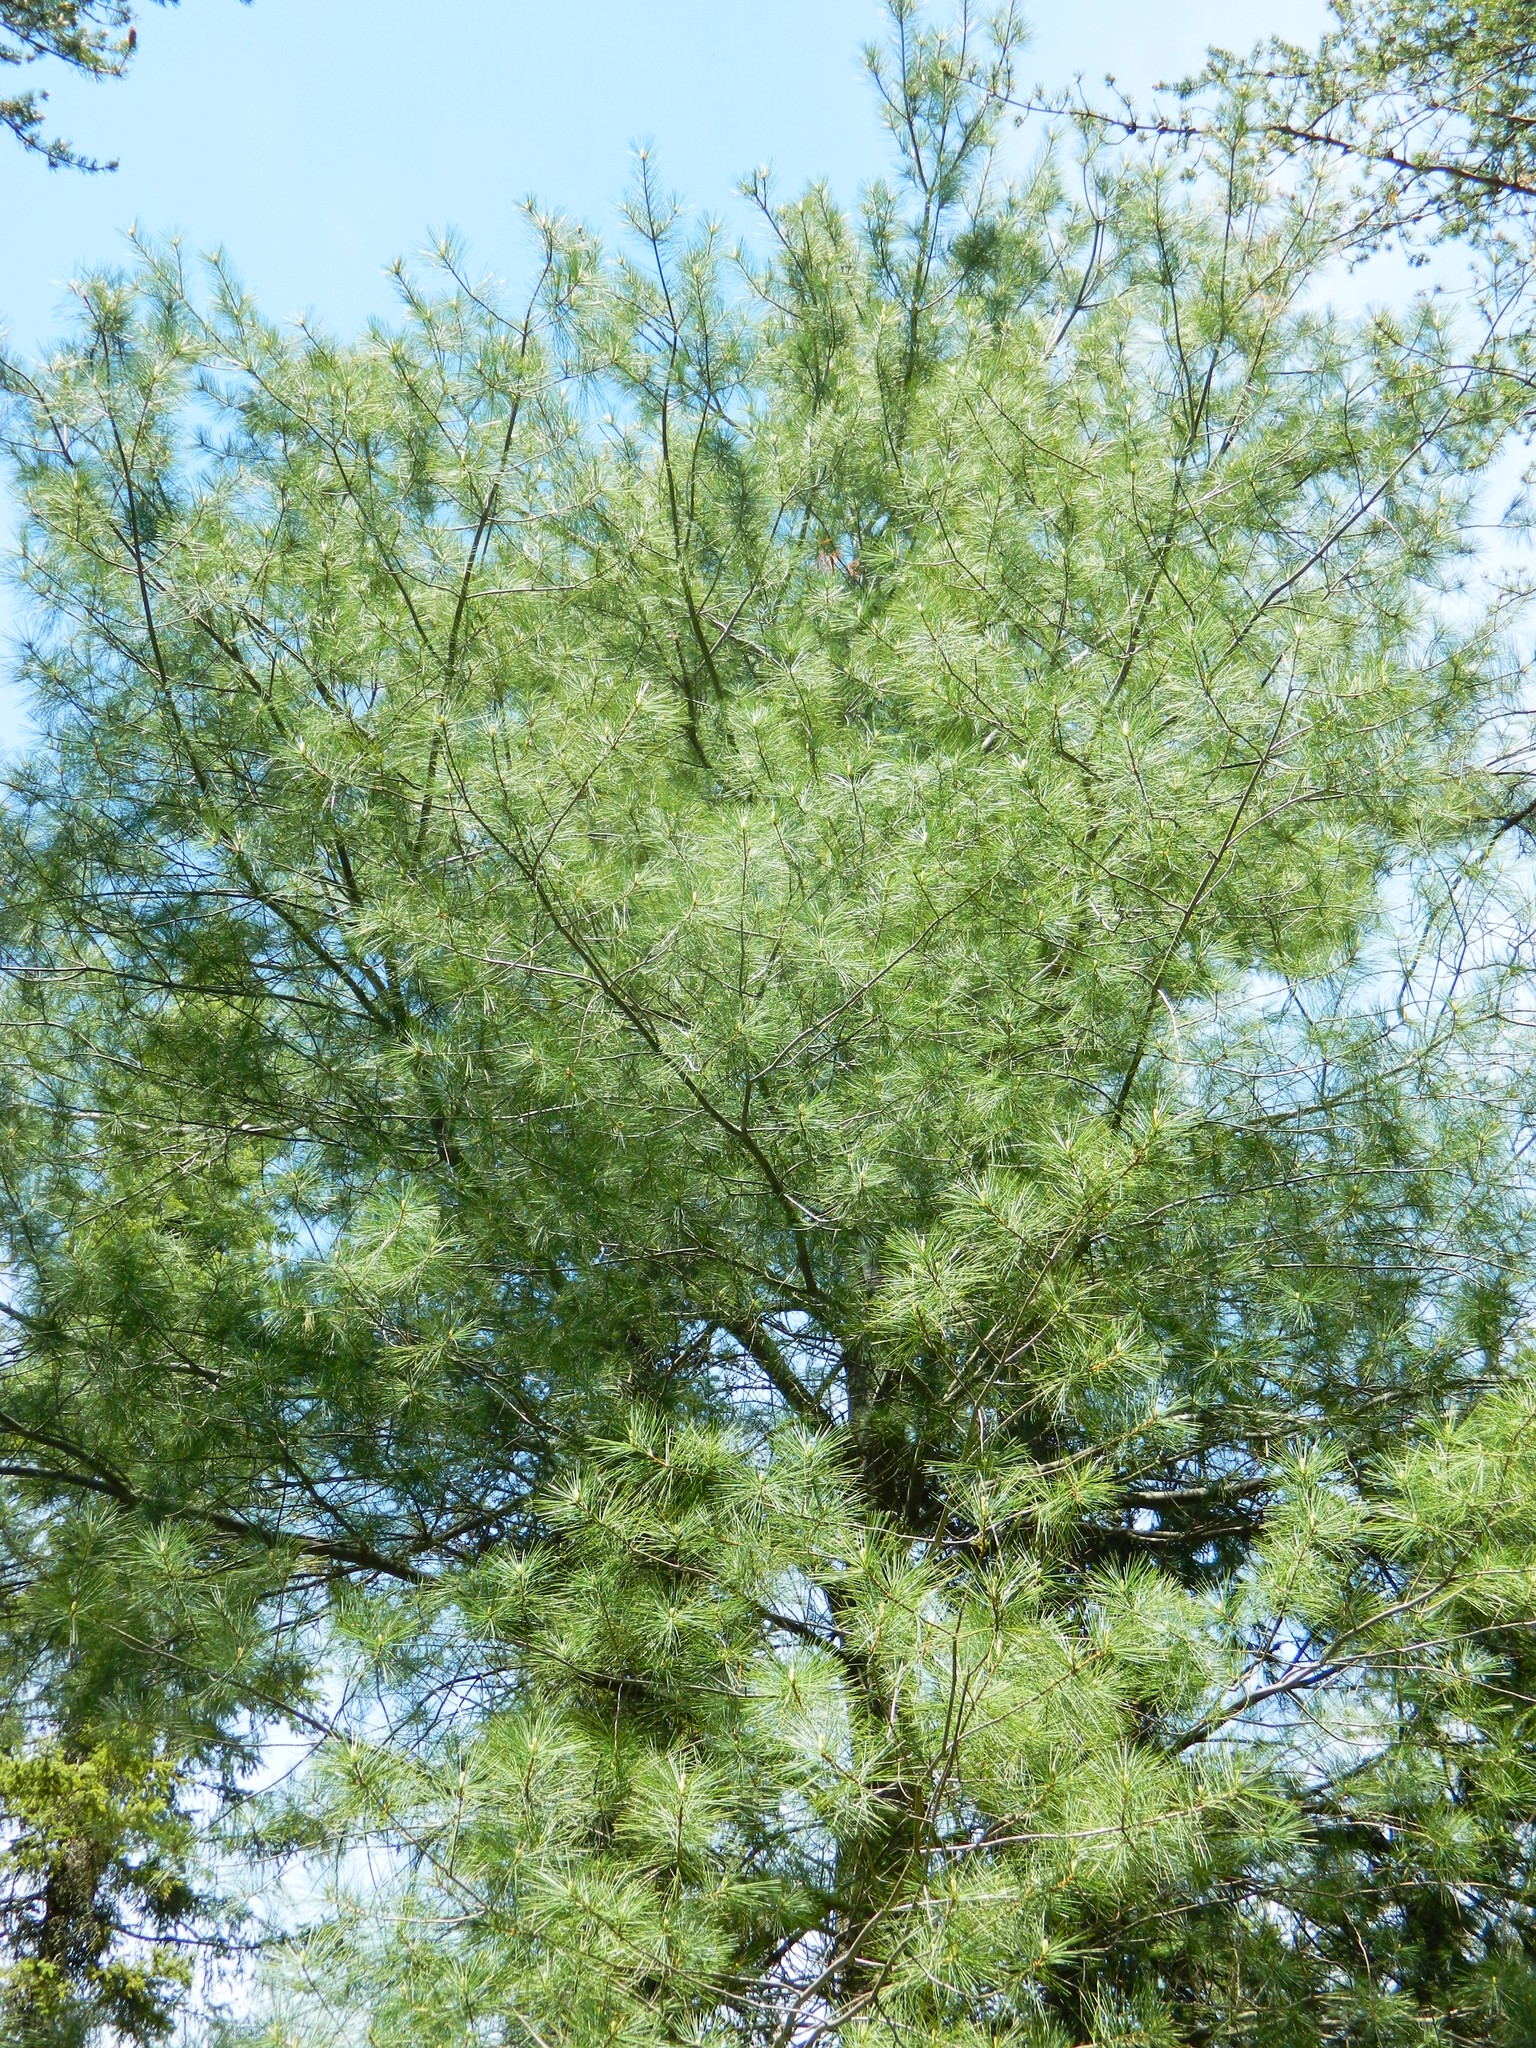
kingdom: Plantae
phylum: Tracheophyta
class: Pinopsida
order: Pinales
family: Pinaceae
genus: Pinus
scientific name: Pinus strobus
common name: Weymouth pine
